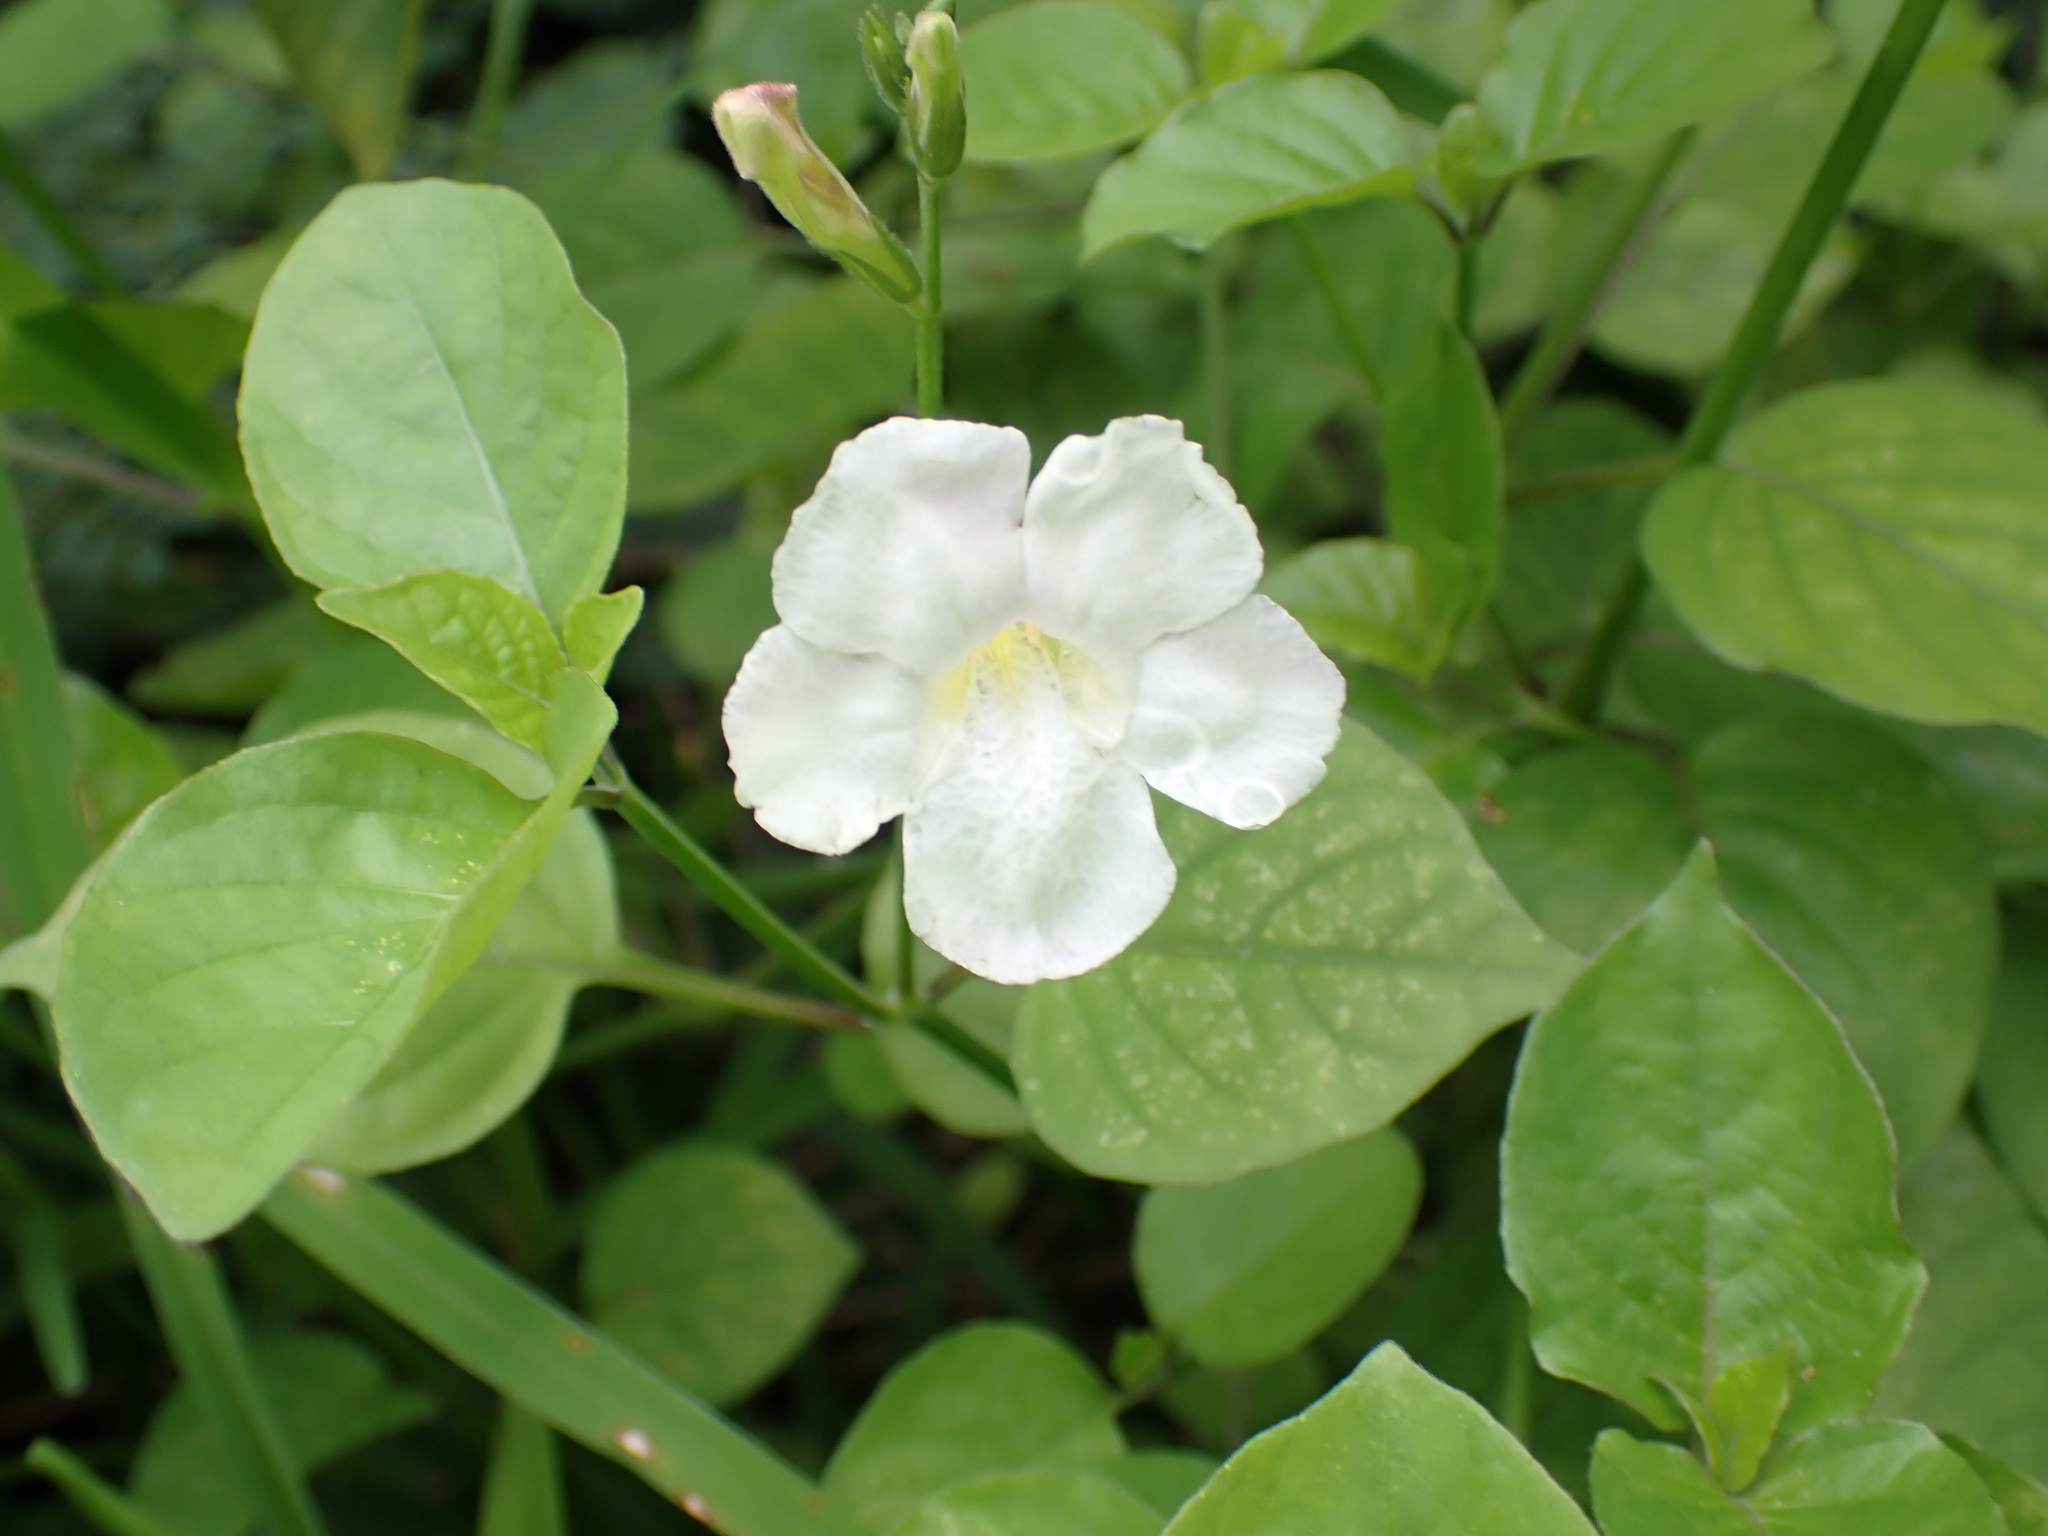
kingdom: Plantae
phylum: Tracheophyta
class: Magnoliopsida
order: Lamiales
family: Acanthaceae
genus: Asystasia
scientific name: Asystasia gangetica
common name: Chinese violet
